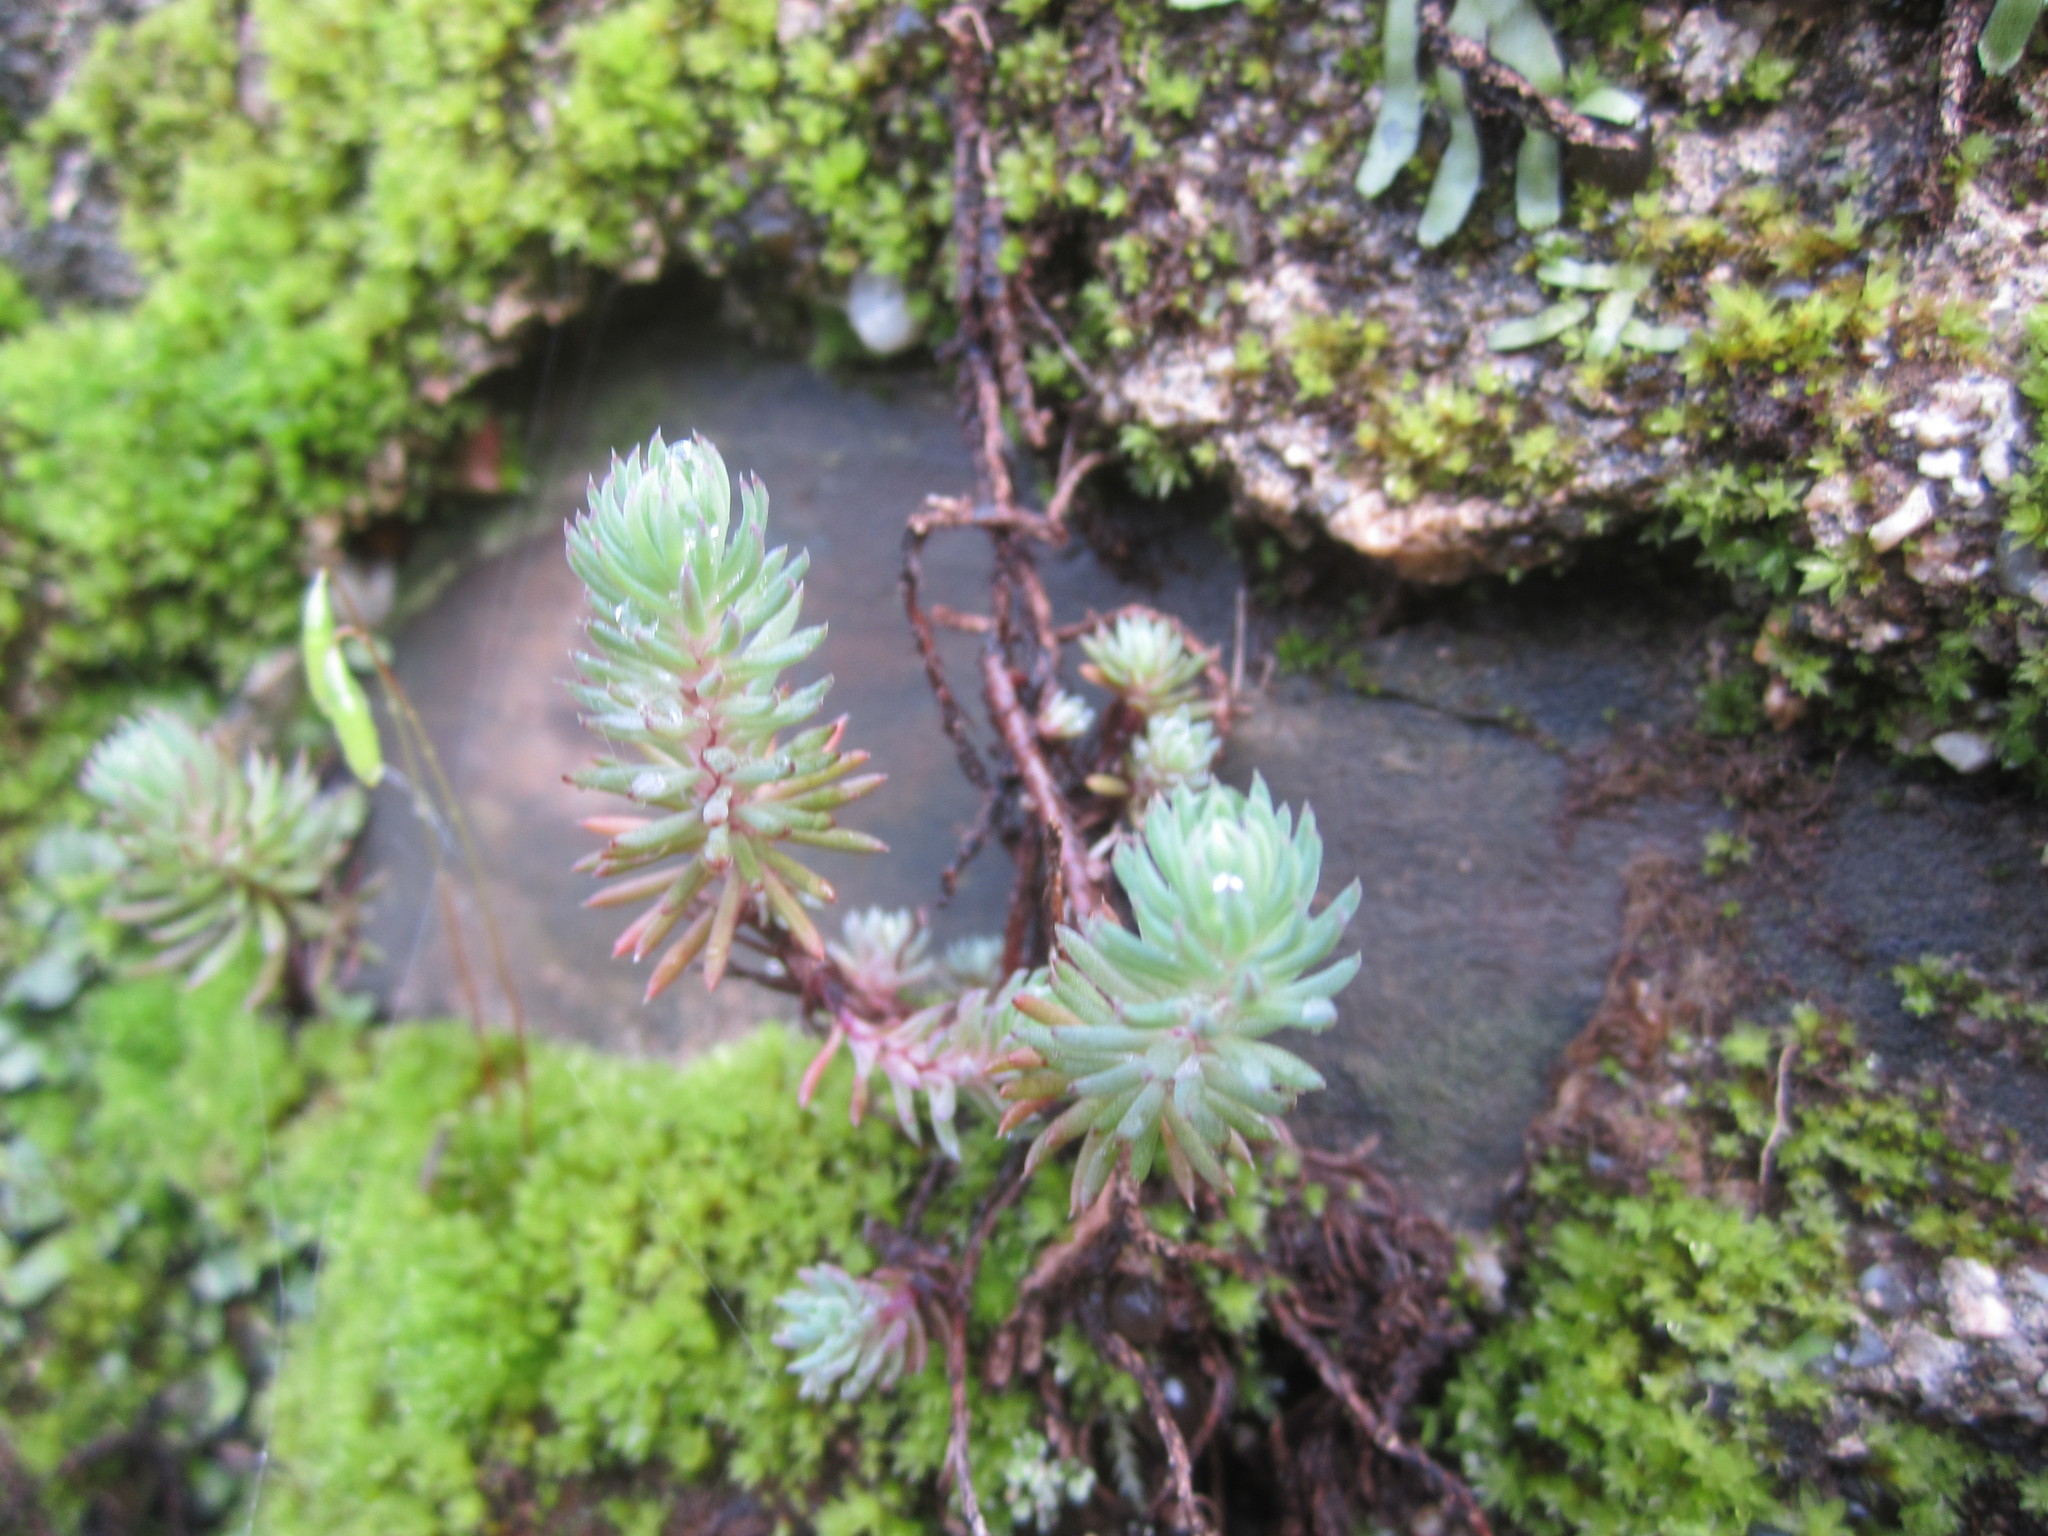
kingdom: Plantae
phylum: Tracheophyta
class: Magnoliopsida
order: Saxifragales
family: Crassulaceae
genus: Petrosedum
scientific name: Petrosedum forsterianum
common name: Forster's stonecrop
